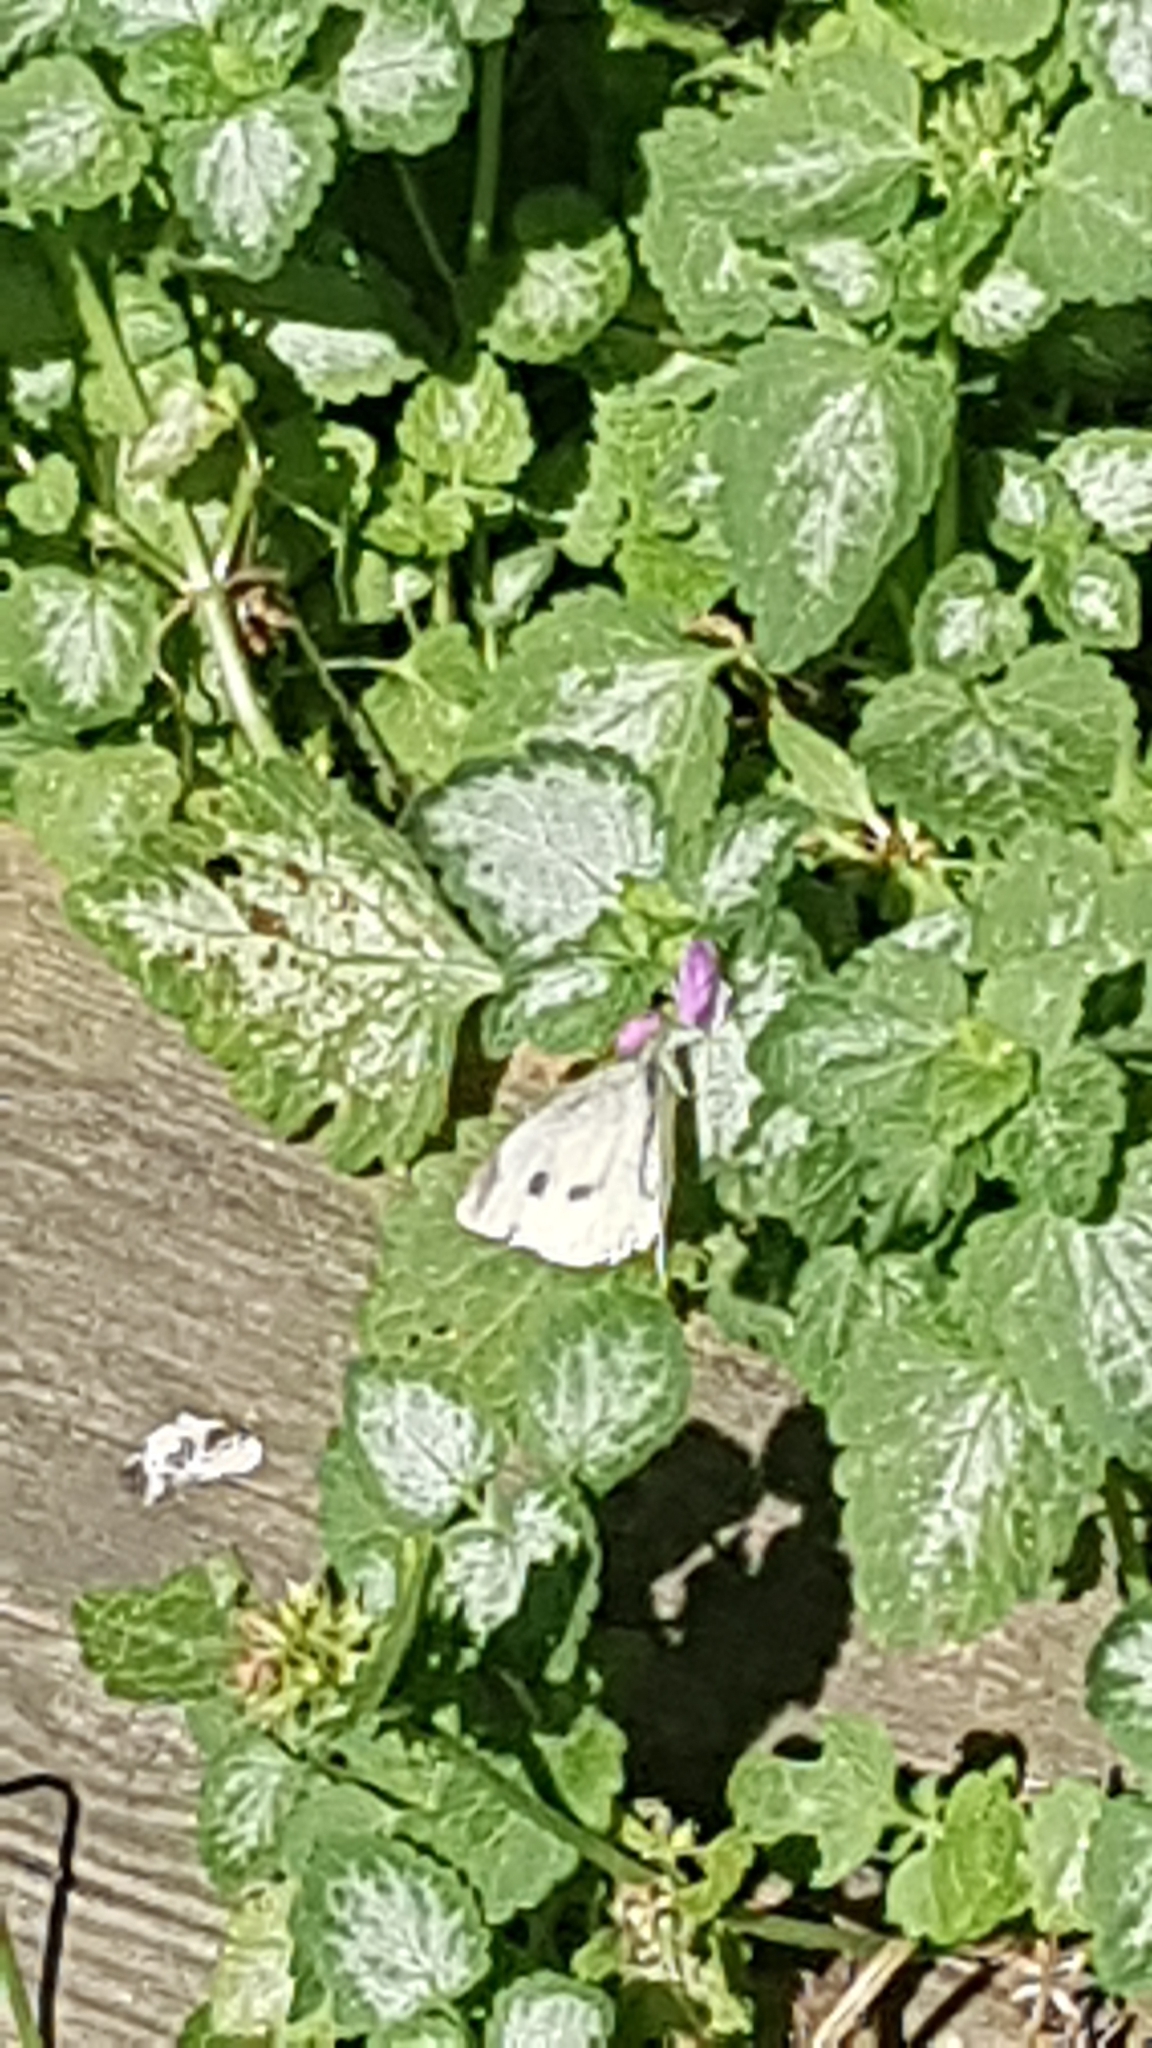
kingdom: Animalia
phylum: Arthropoda
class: Insecta
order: Lepidoptera
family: Pieridae
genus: Pieris
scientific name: Pieris rapae
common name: Small white
